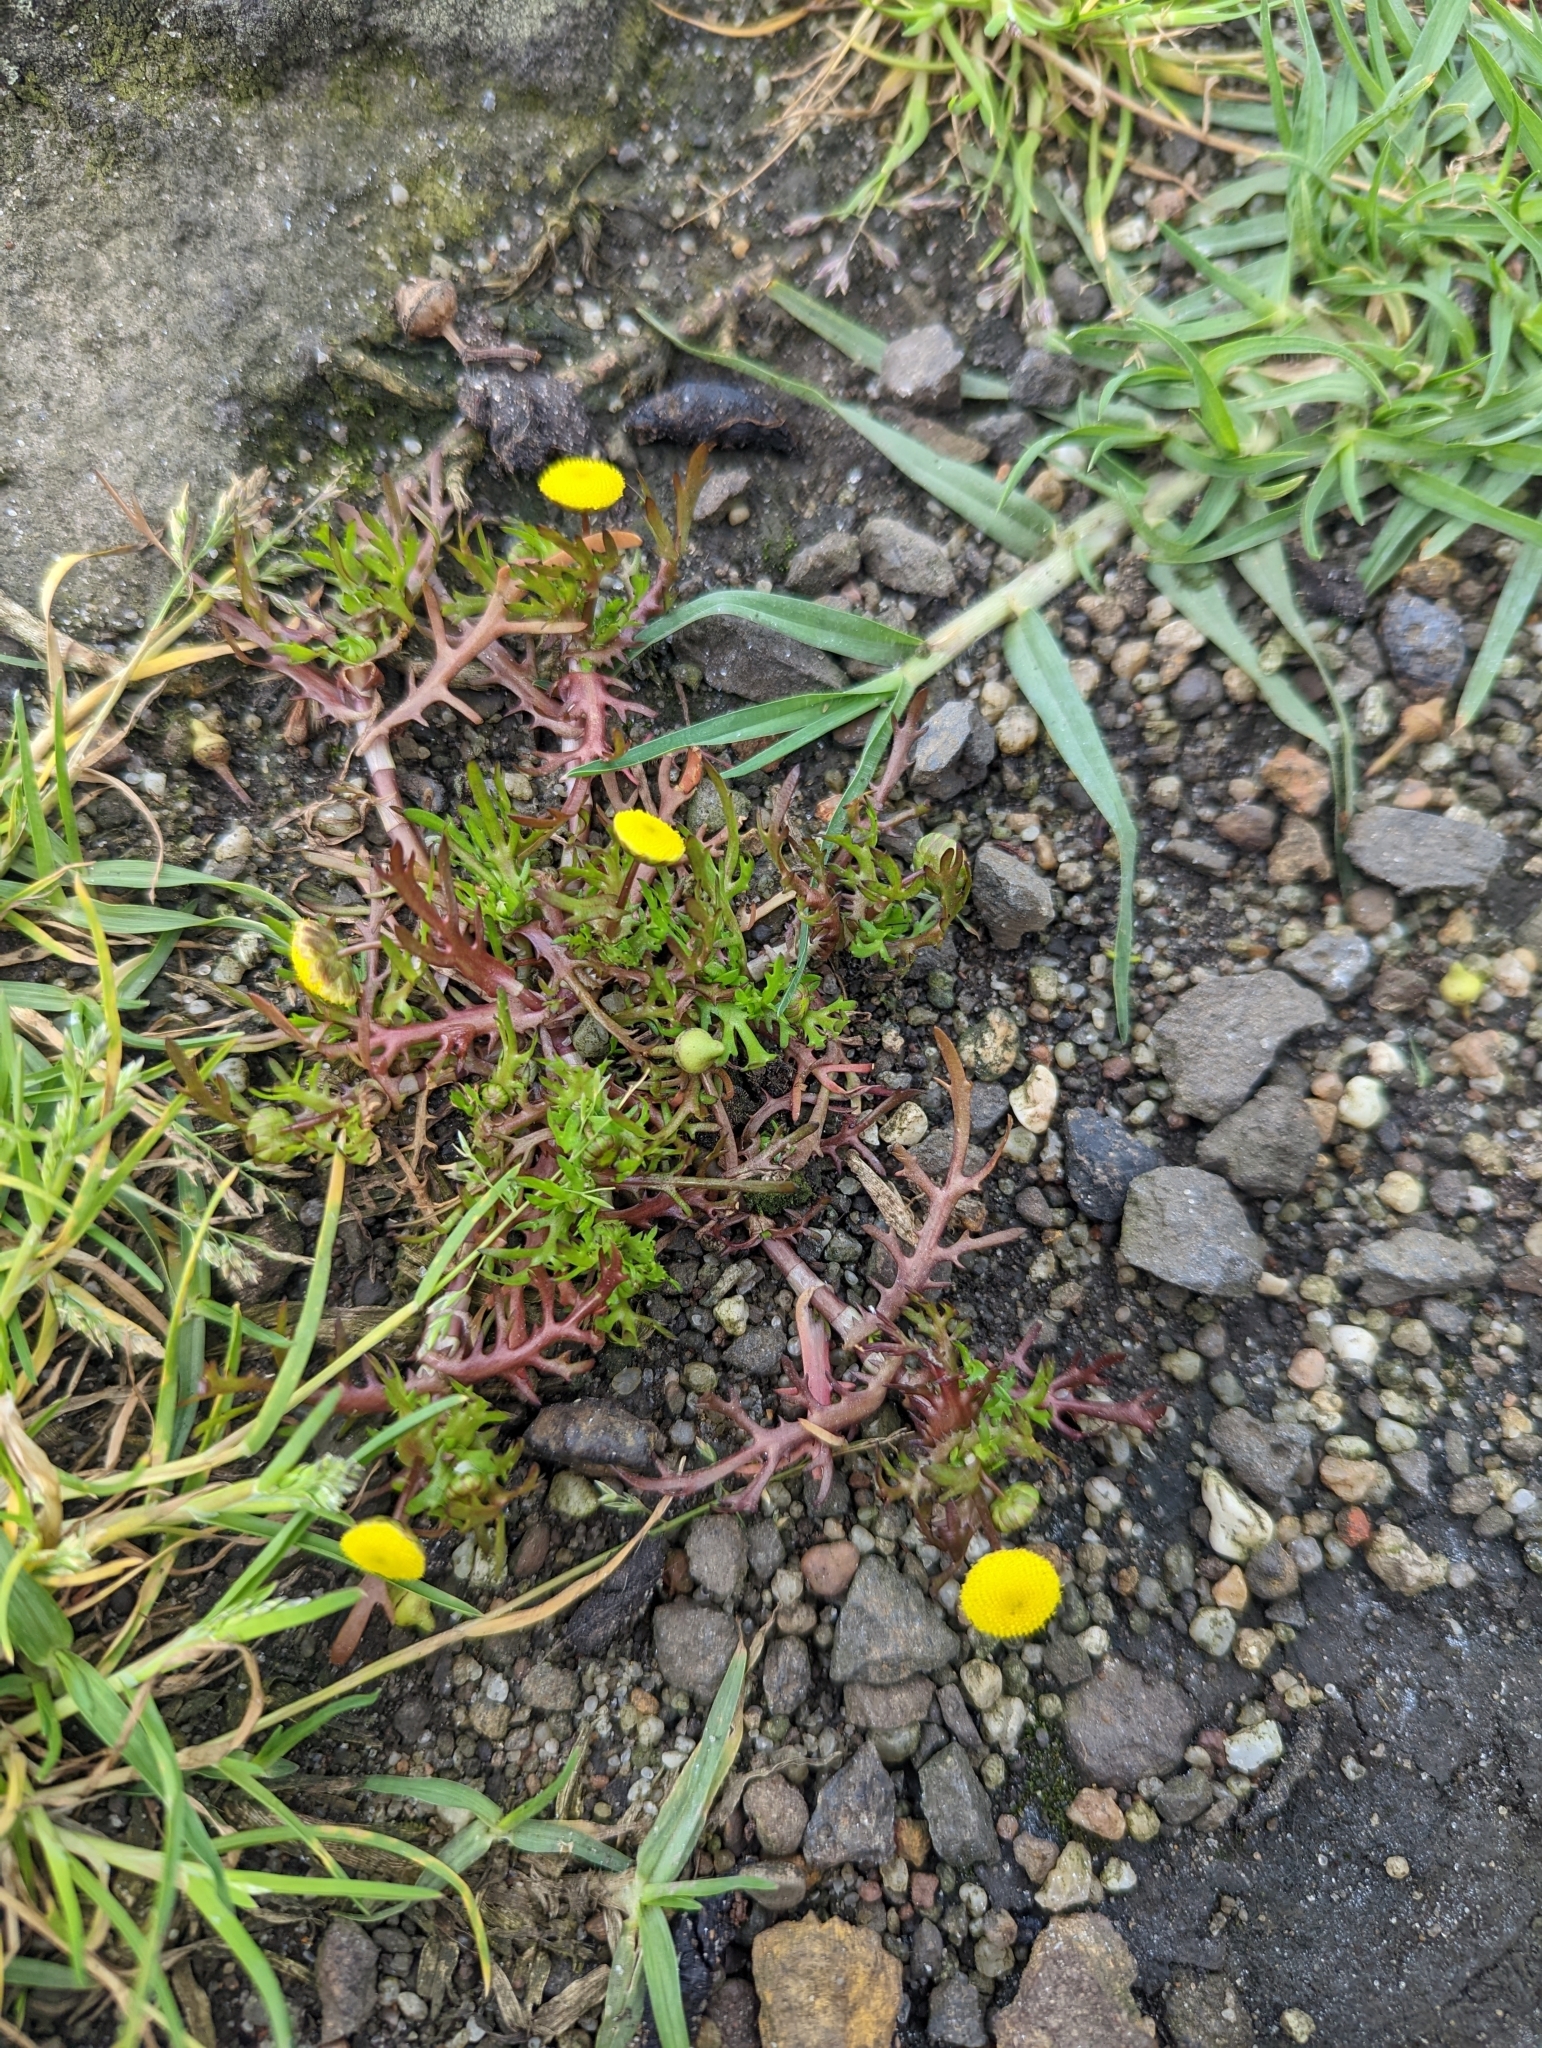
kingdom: Plantae
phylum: Tracheophyta
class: Magnoliopsida
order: Asterales
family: Asteraceae
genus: Cotula
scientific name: Cotula coronopifolia
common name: Buttonweed
